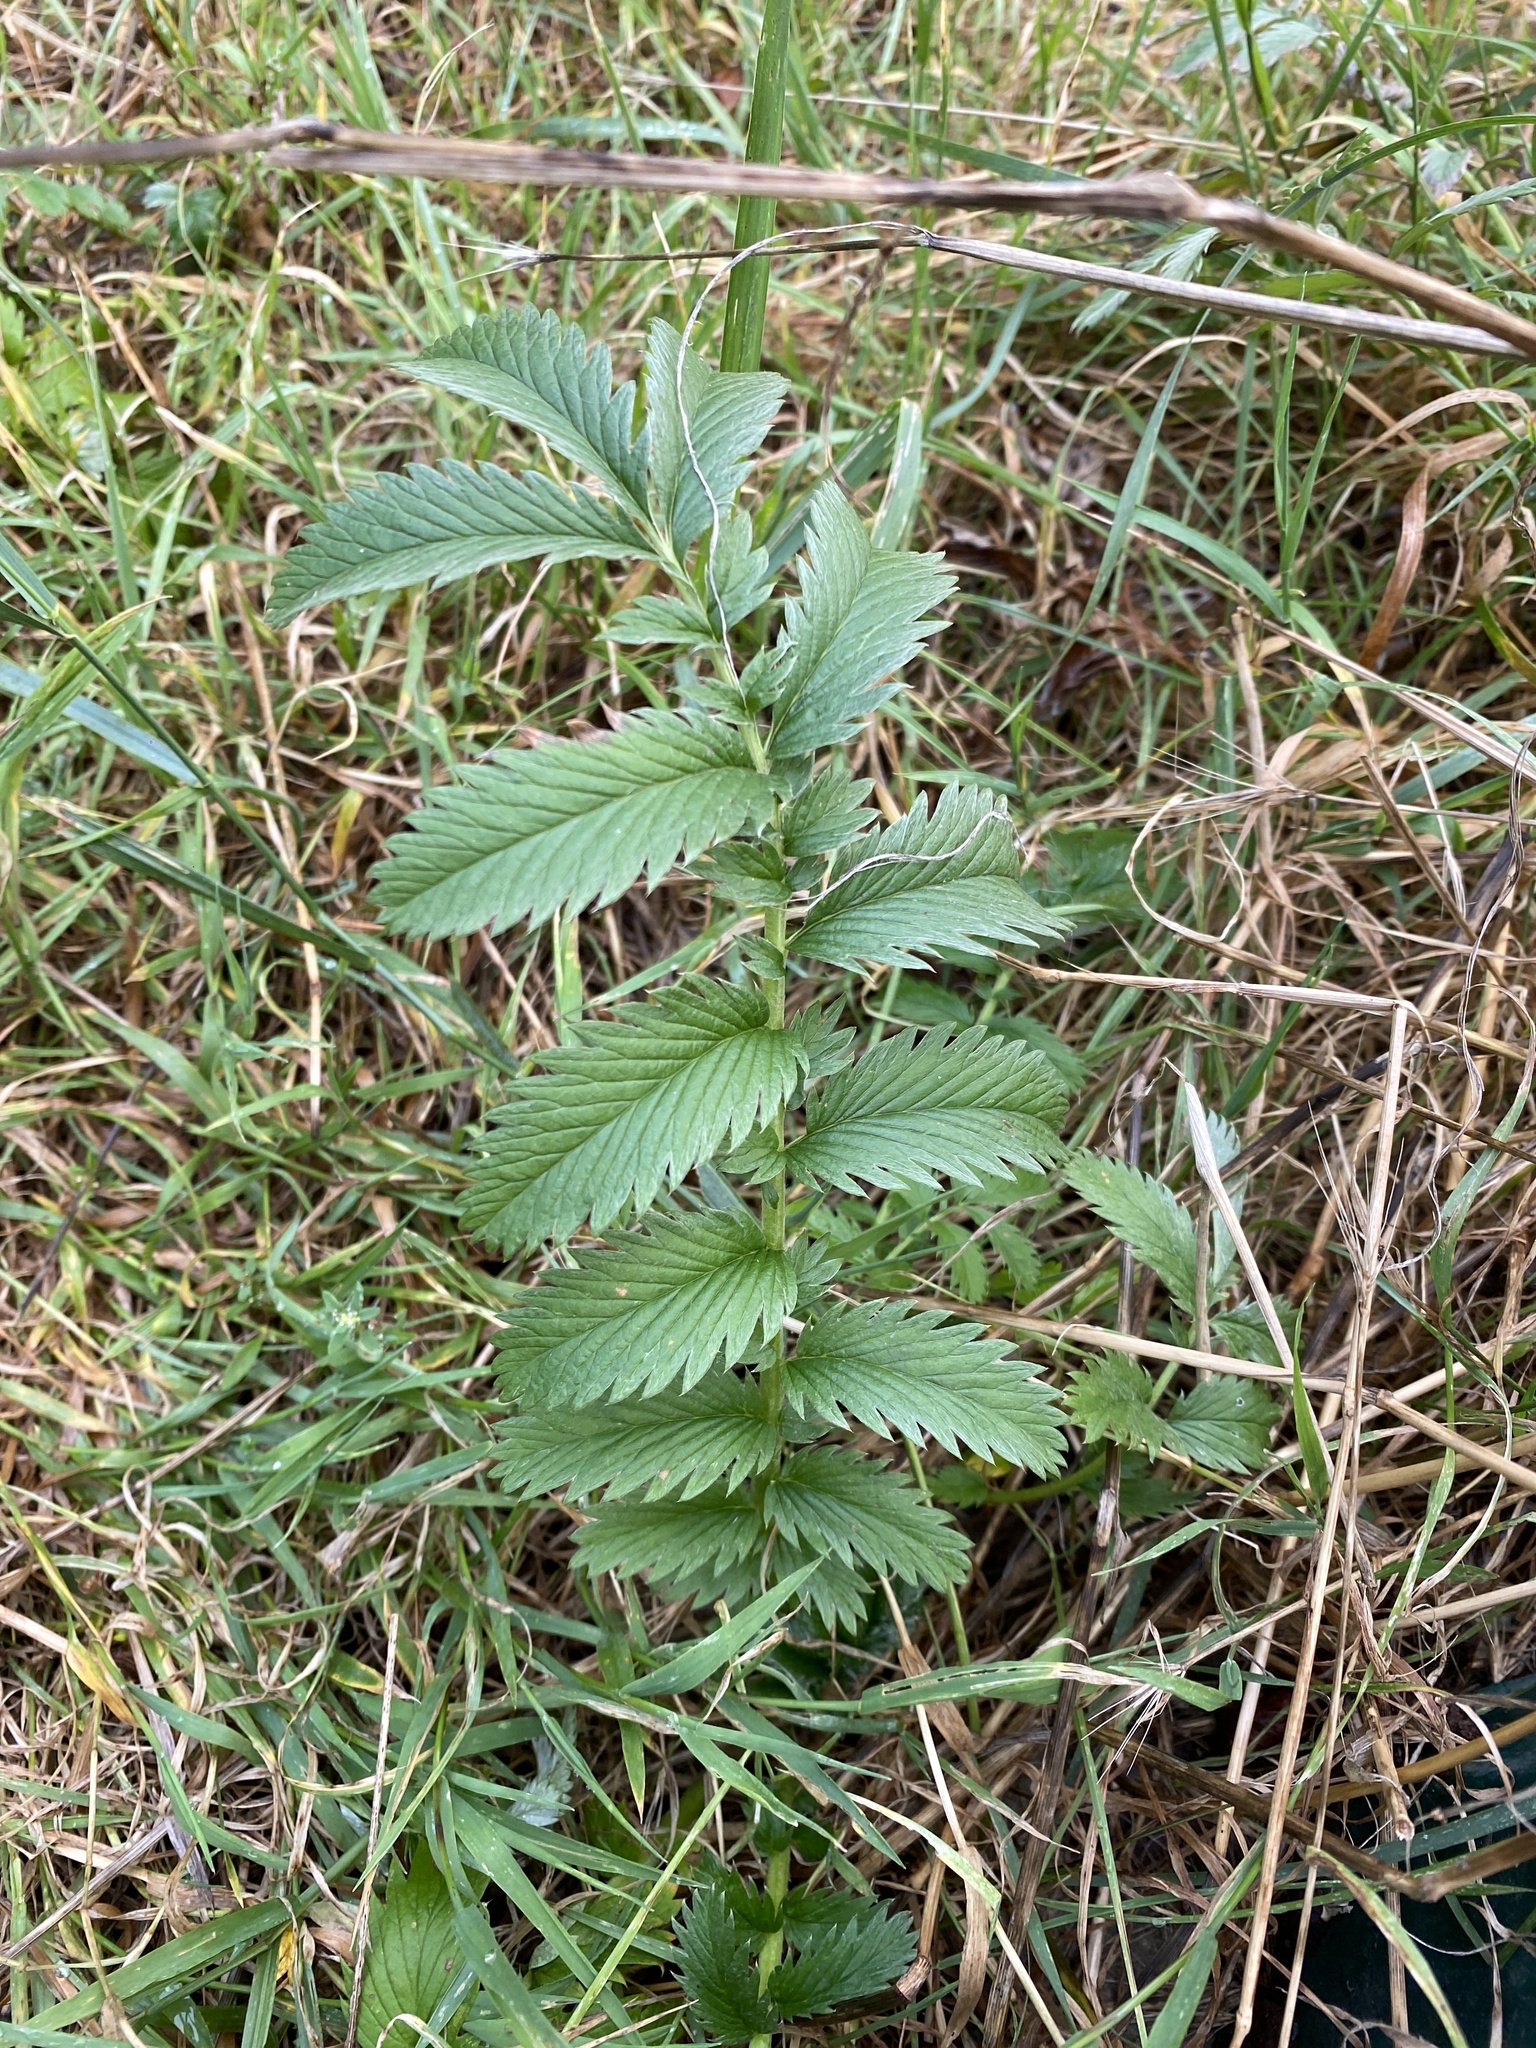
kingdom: Plantae
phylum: Tracheophyta
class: Magnoliopsida
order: Rosales
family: Rosaceae
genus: Argentina
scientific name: Argentina anserina
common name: Common silverweed
